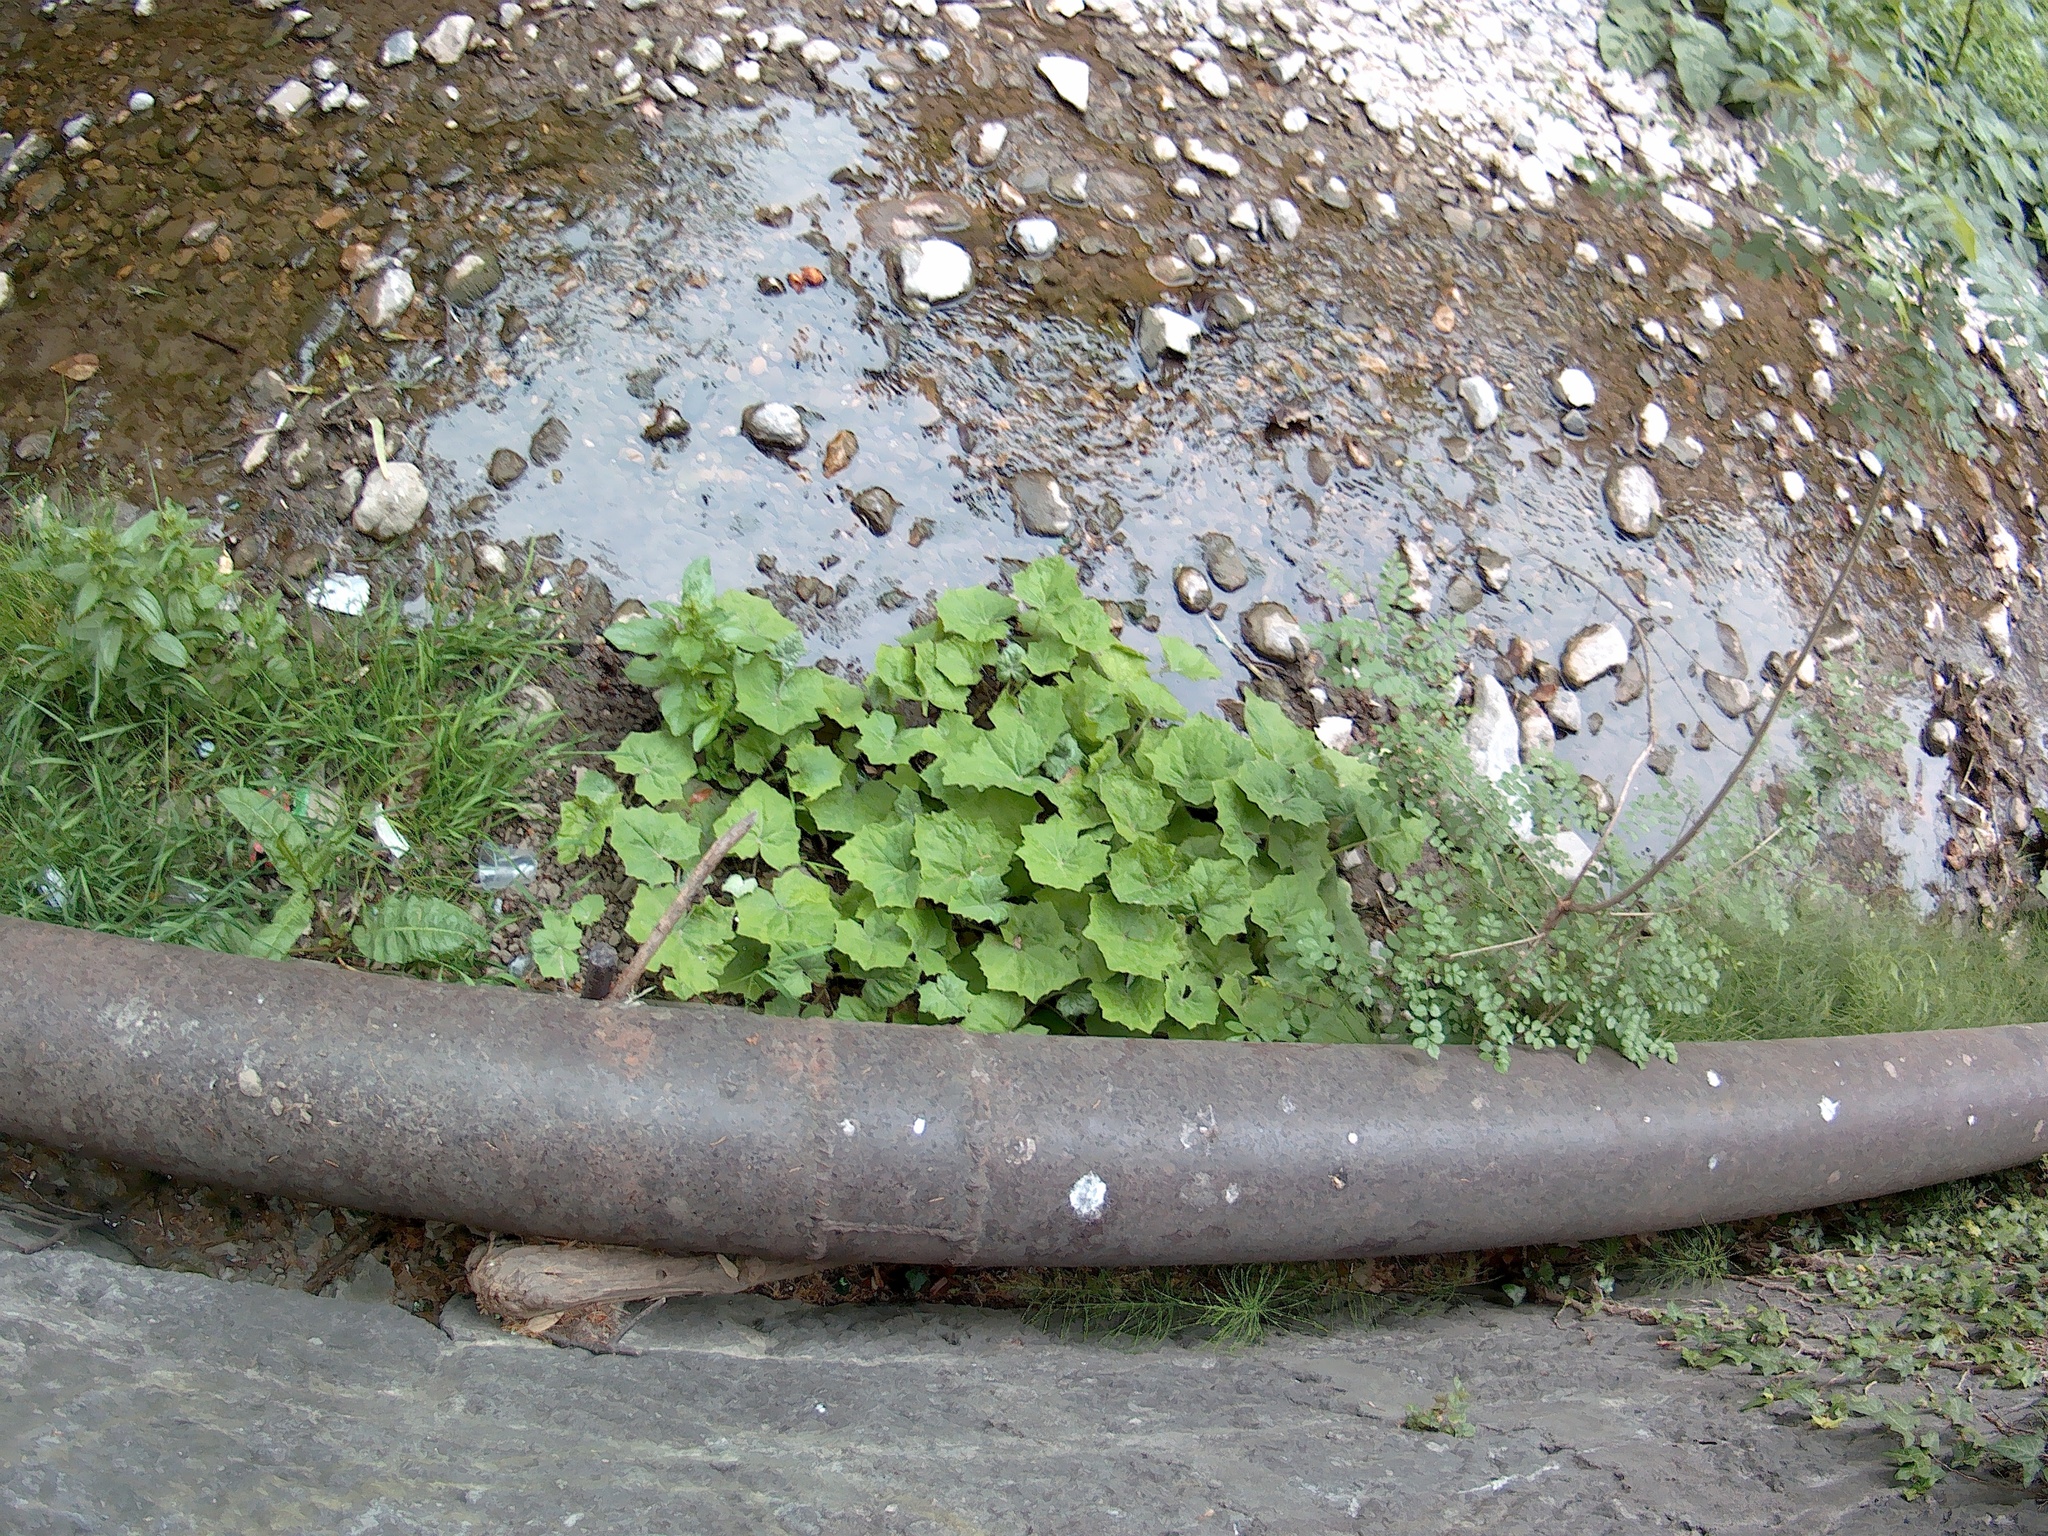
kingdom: Plantae
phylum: Tracheophyta
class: Magnoliopsida
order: Asterales
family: Asteraceae
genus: Tussilago
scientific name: Tussilago farfara
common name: Coltsfoot
